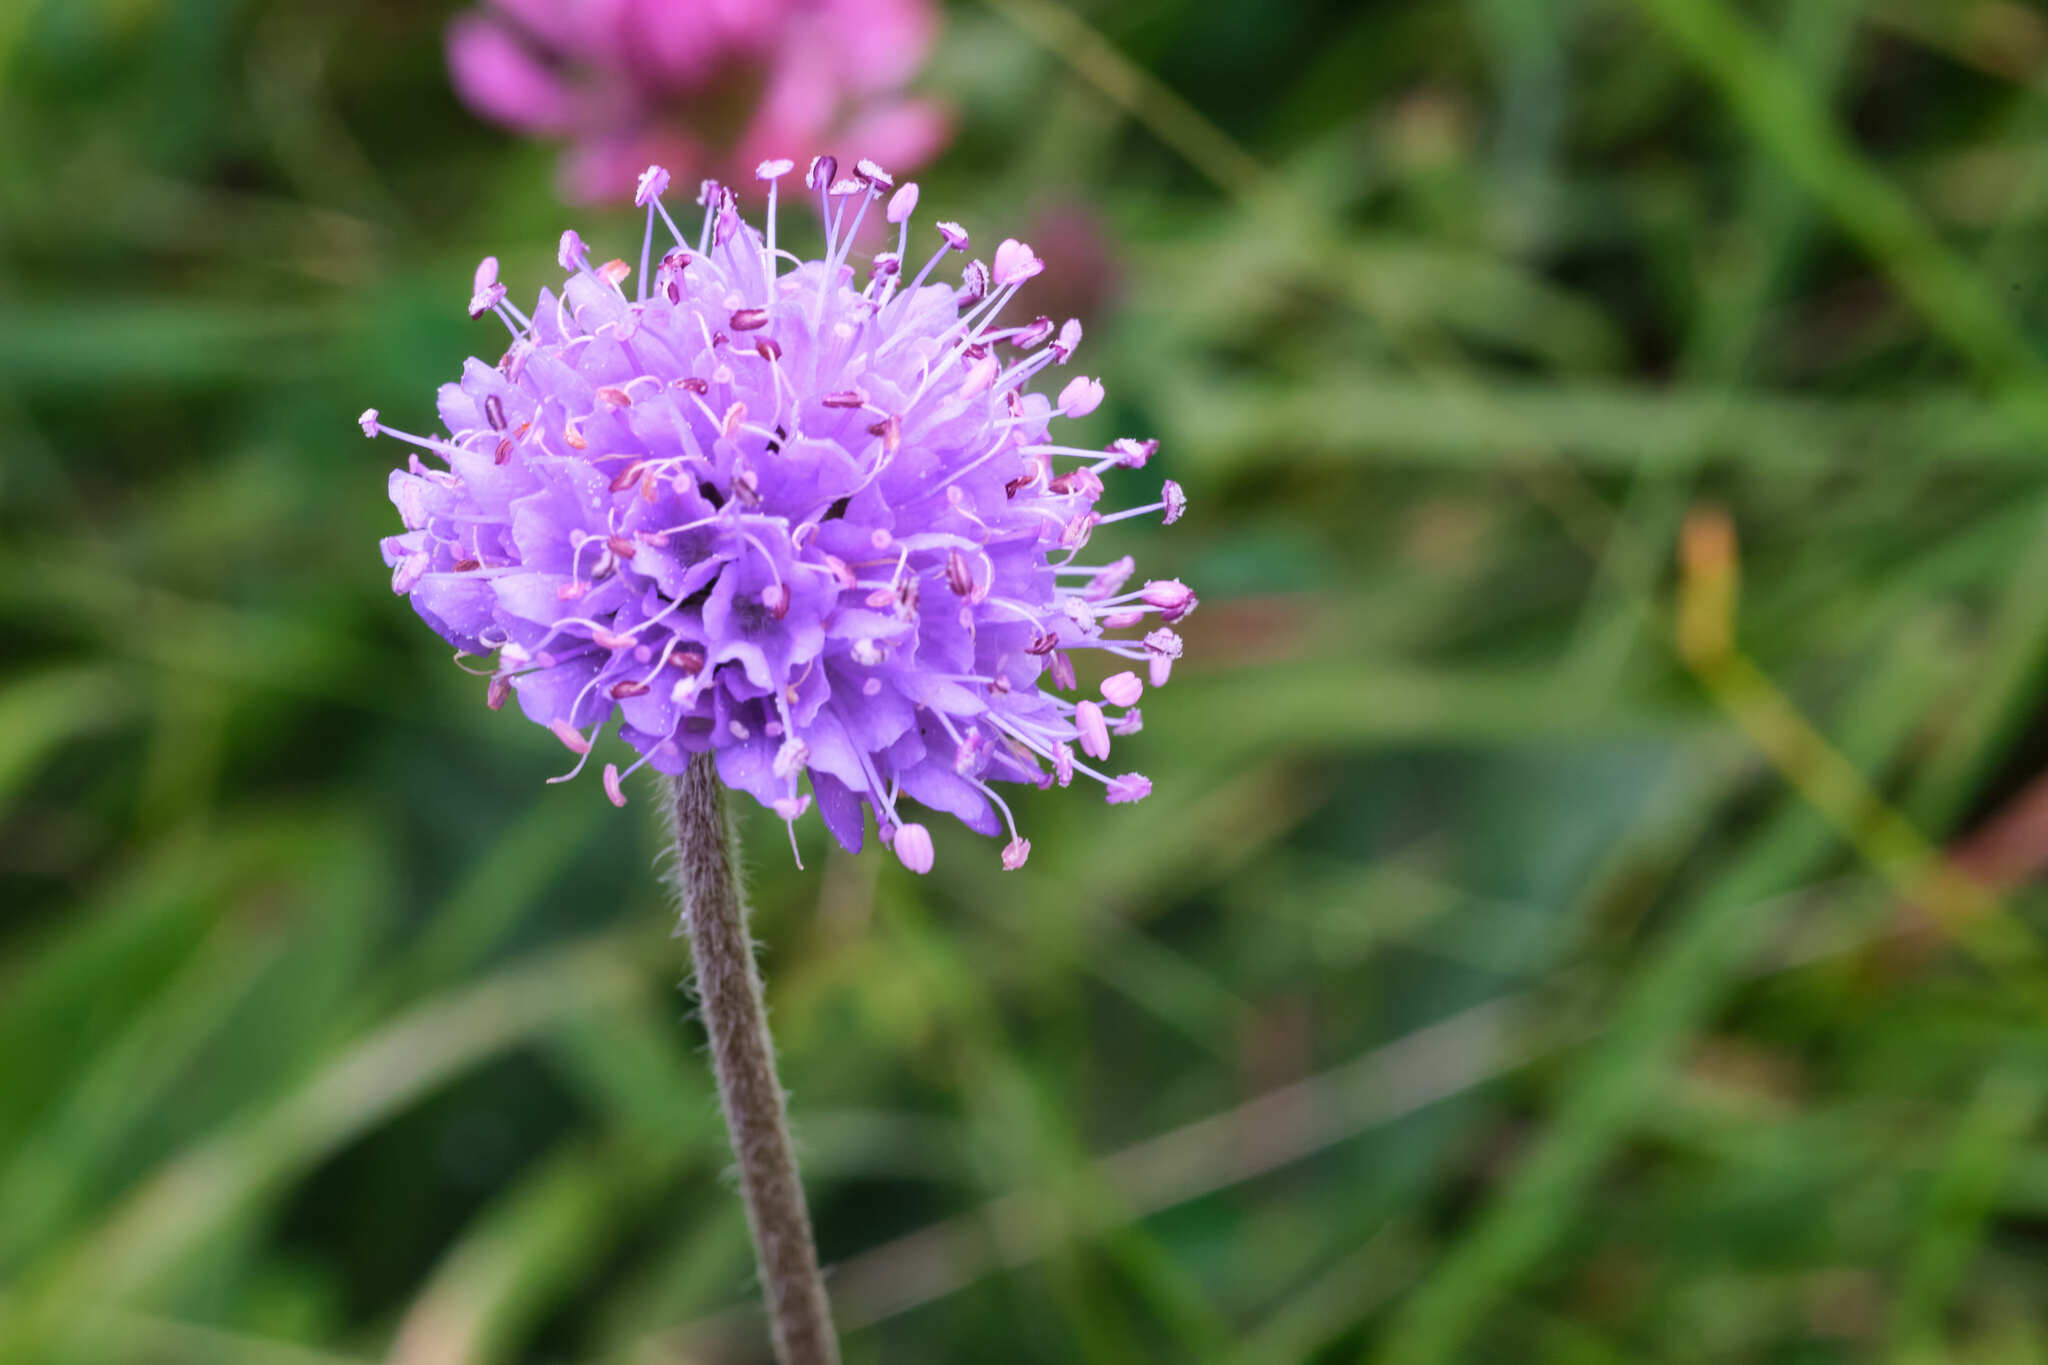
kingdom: Plantae
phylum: Tracheophyta
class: Magnoliopsida
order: Dipsacales
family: Caprifoliaceae
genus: Succisa
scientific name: Succisa pratensis
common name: Devil's-bit
